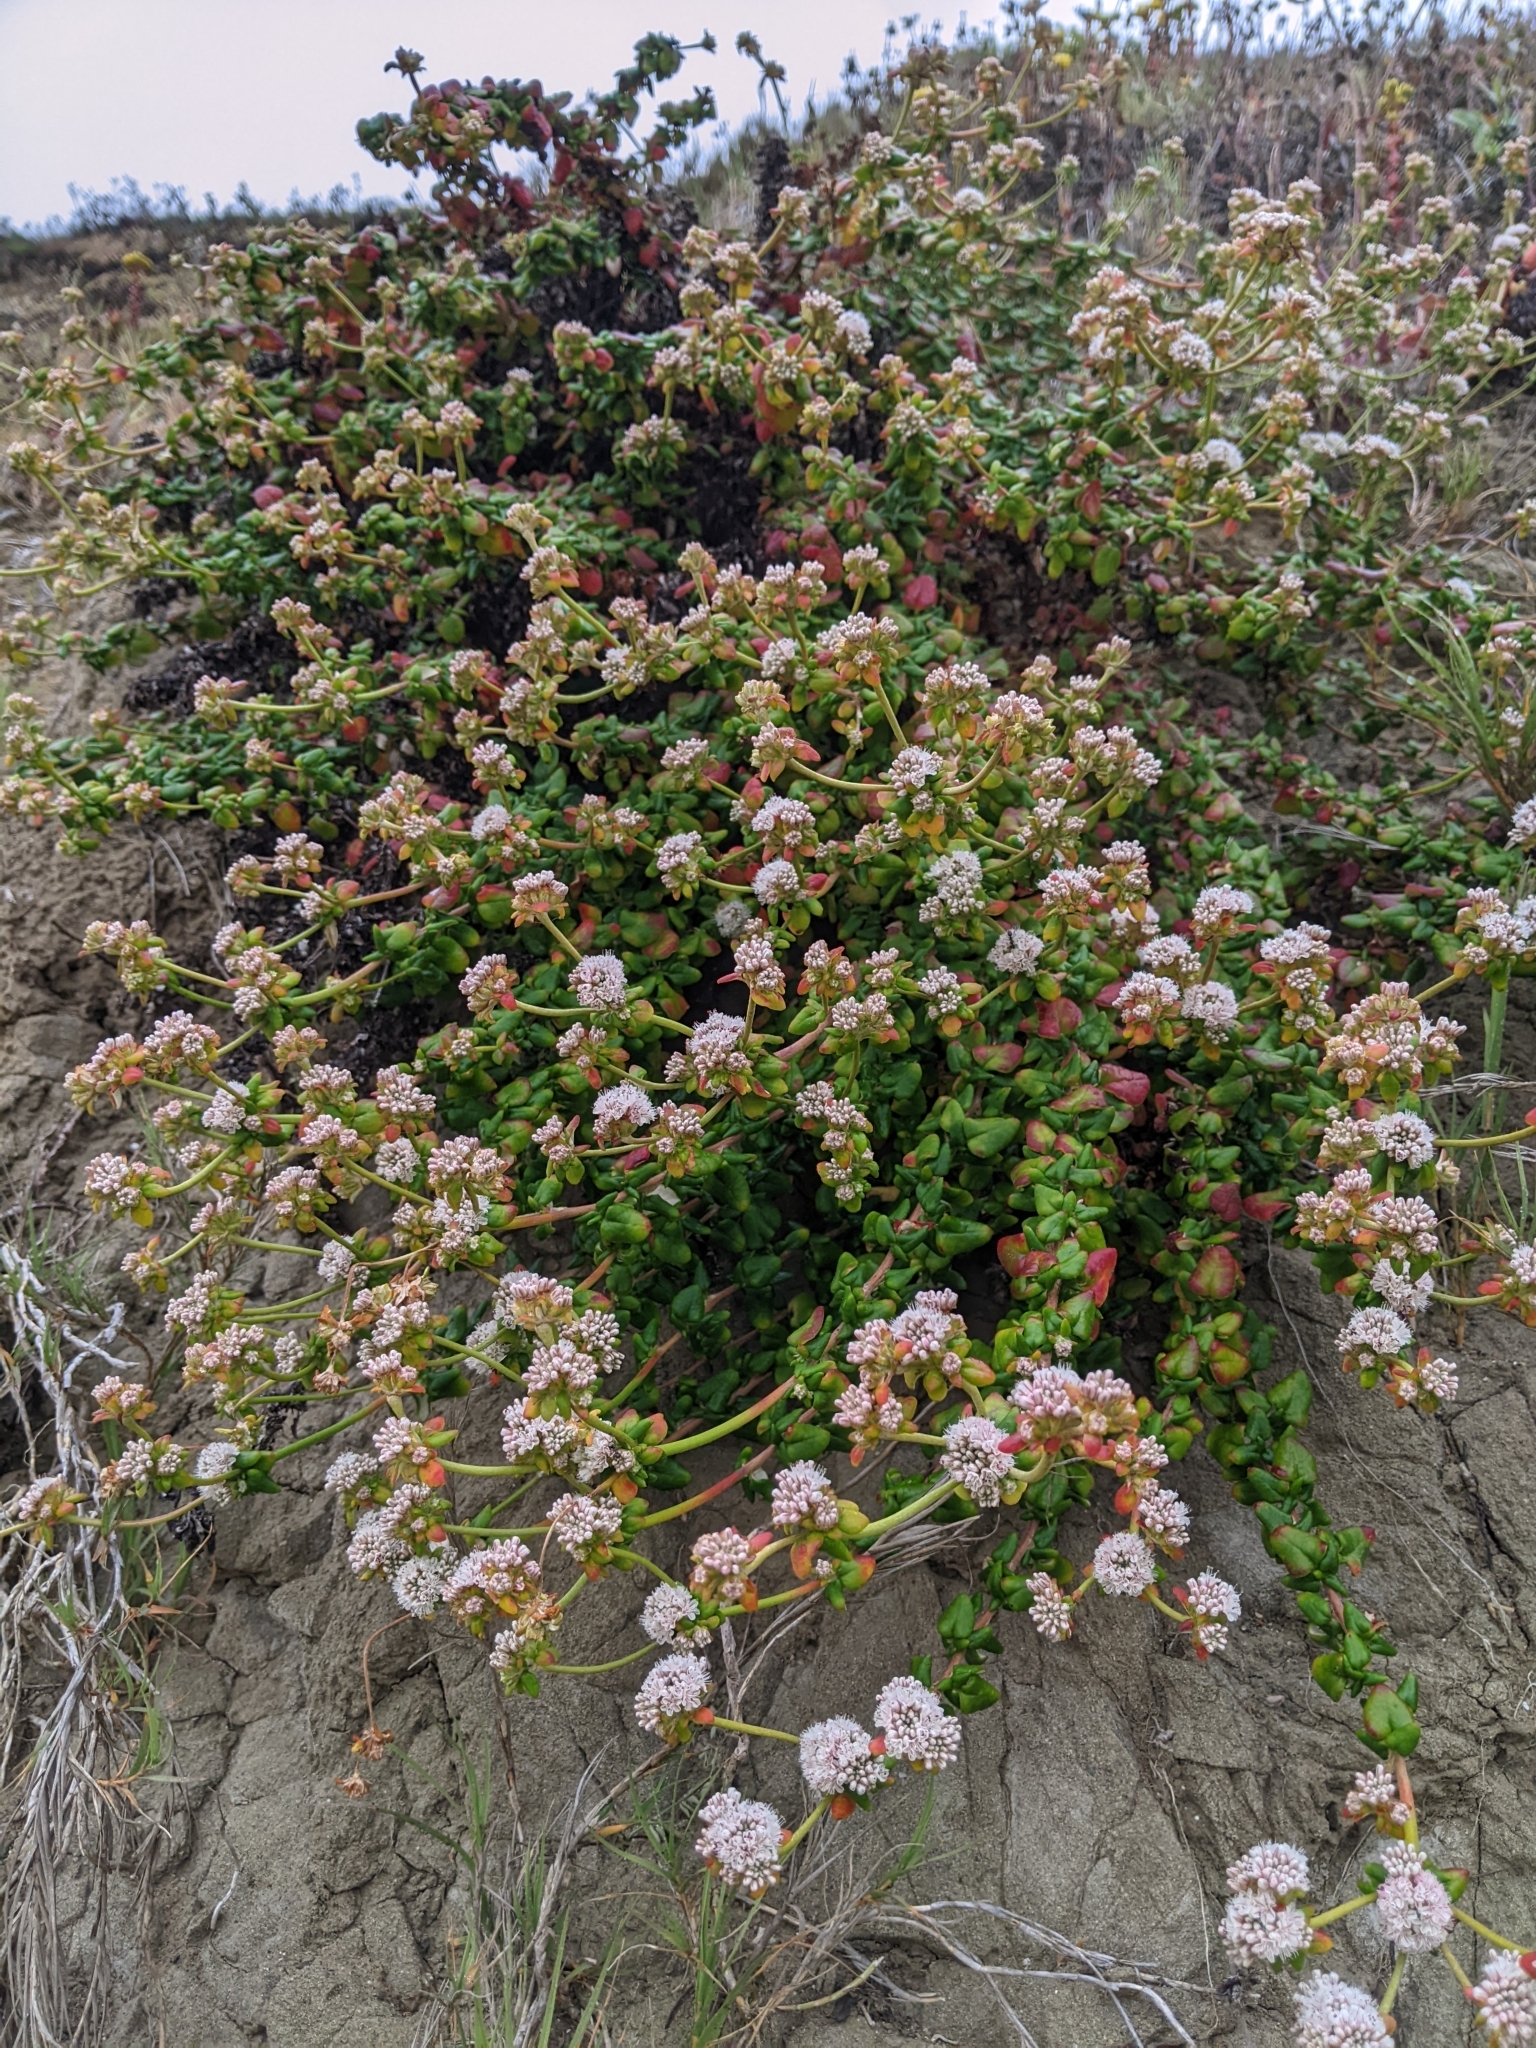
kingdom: Plantae
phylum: Tracheophyta
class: Magnoliopsida
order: Caryophyllales
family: Polygonaceae
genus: Eriogonum
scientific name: Eriogonum parvifolium
